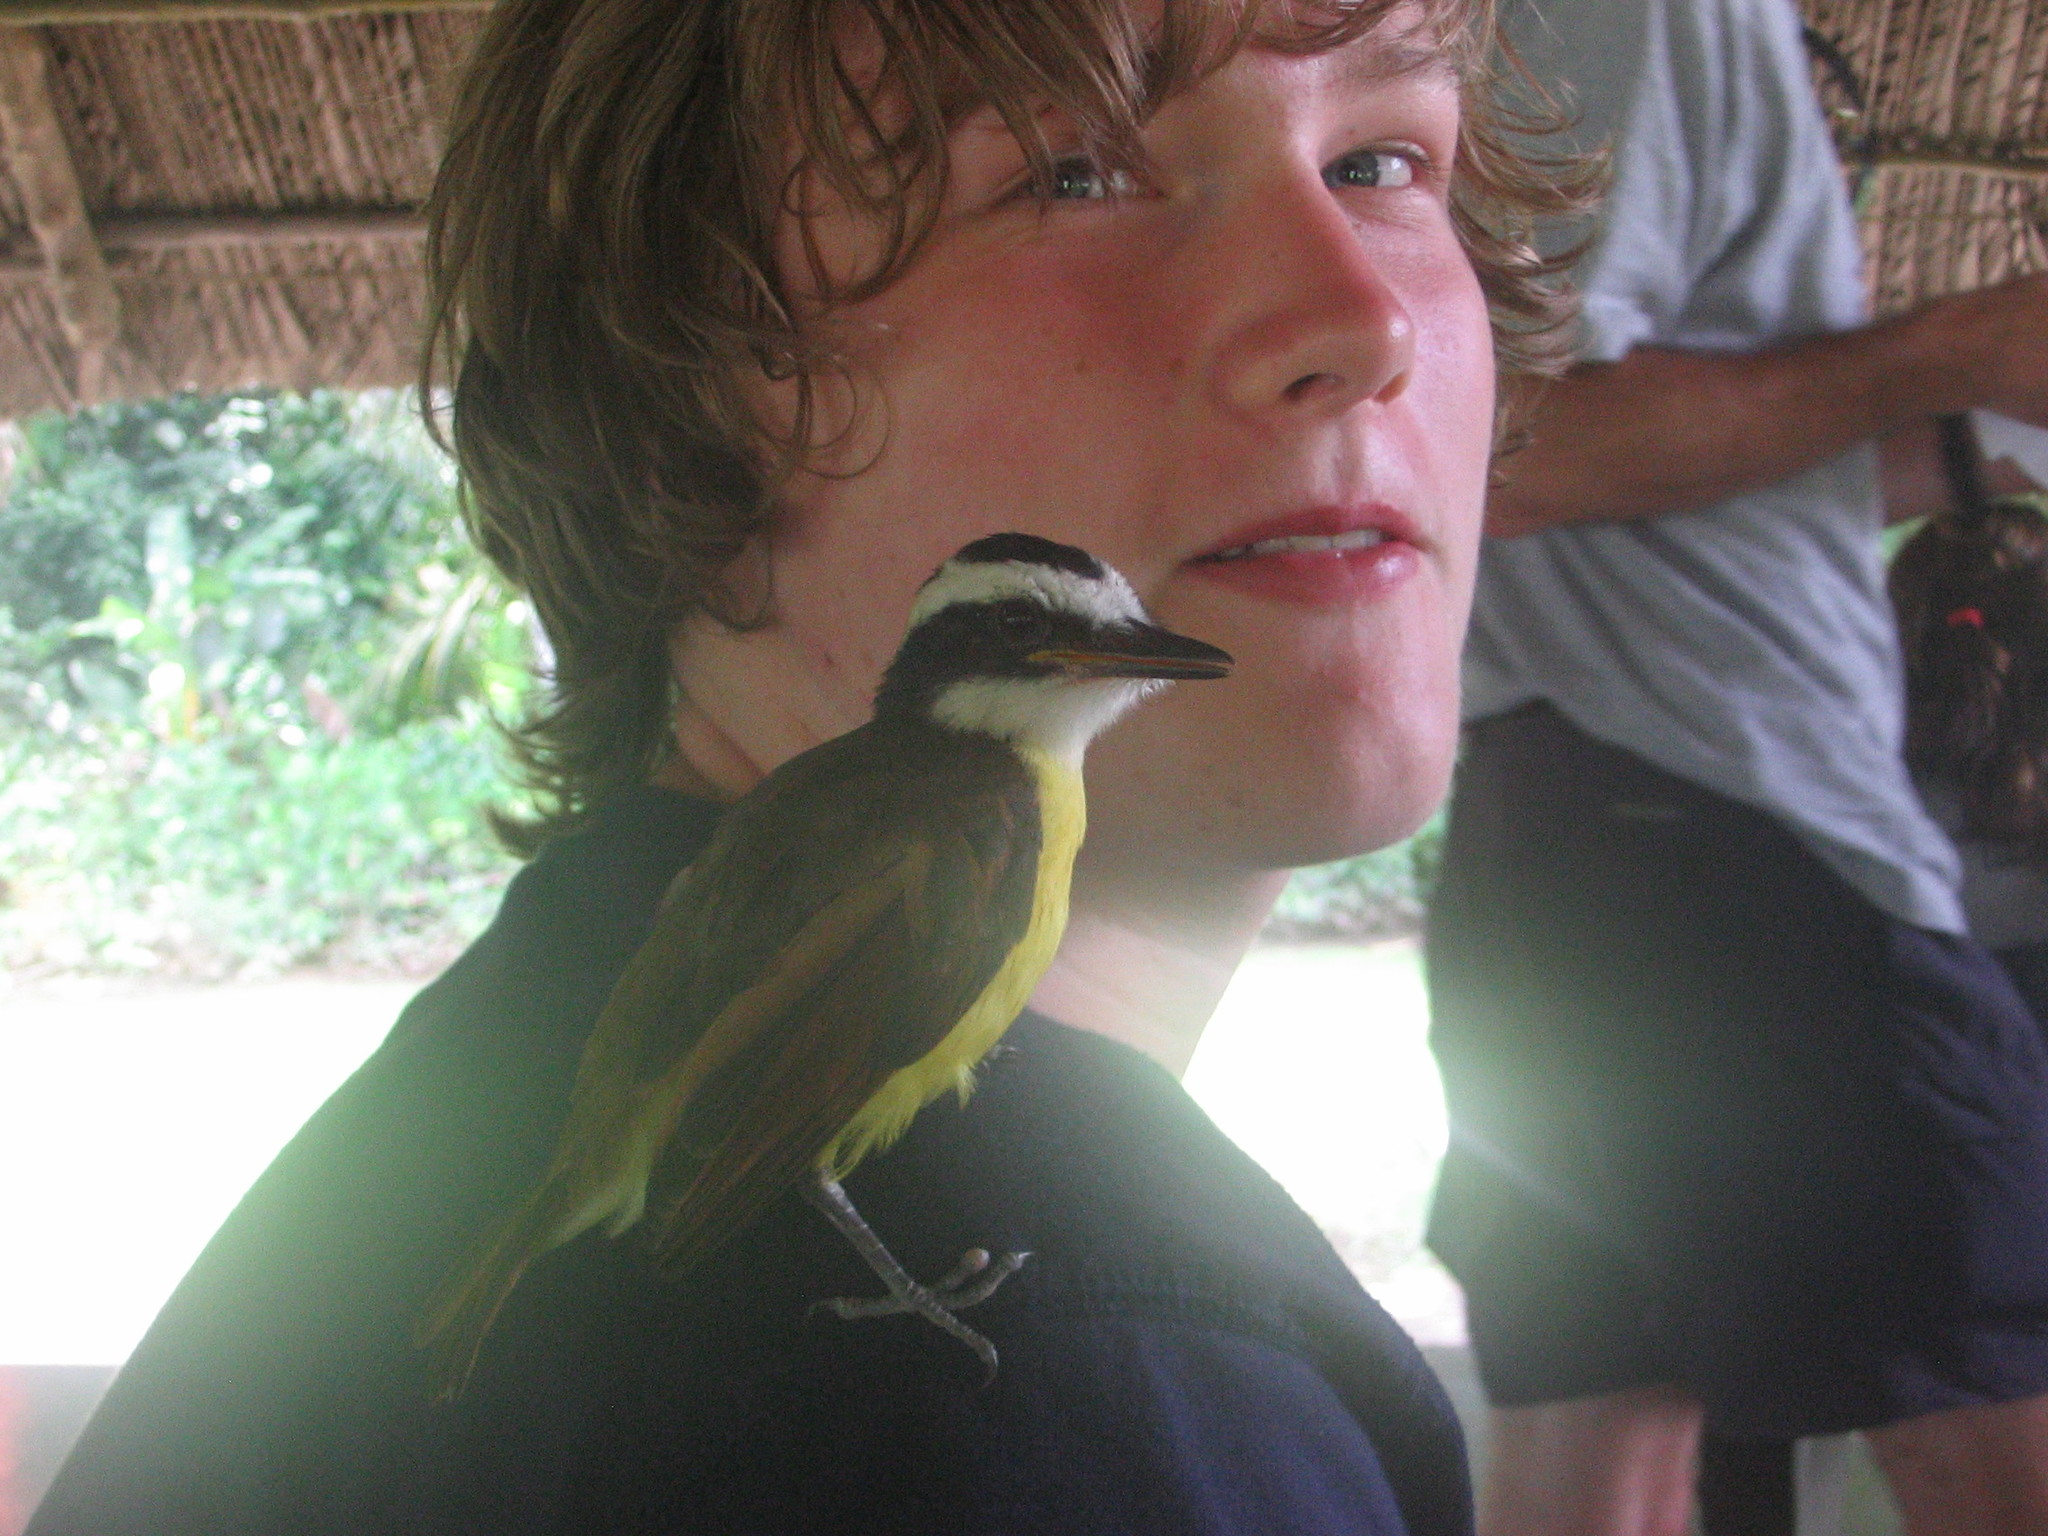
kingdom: Animalia
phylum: Chordata
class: Aves
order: Passeriformes
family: Tyrannidae
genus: Pitangus
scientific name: Pitangus sulphuratus
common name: Great kiskadee
